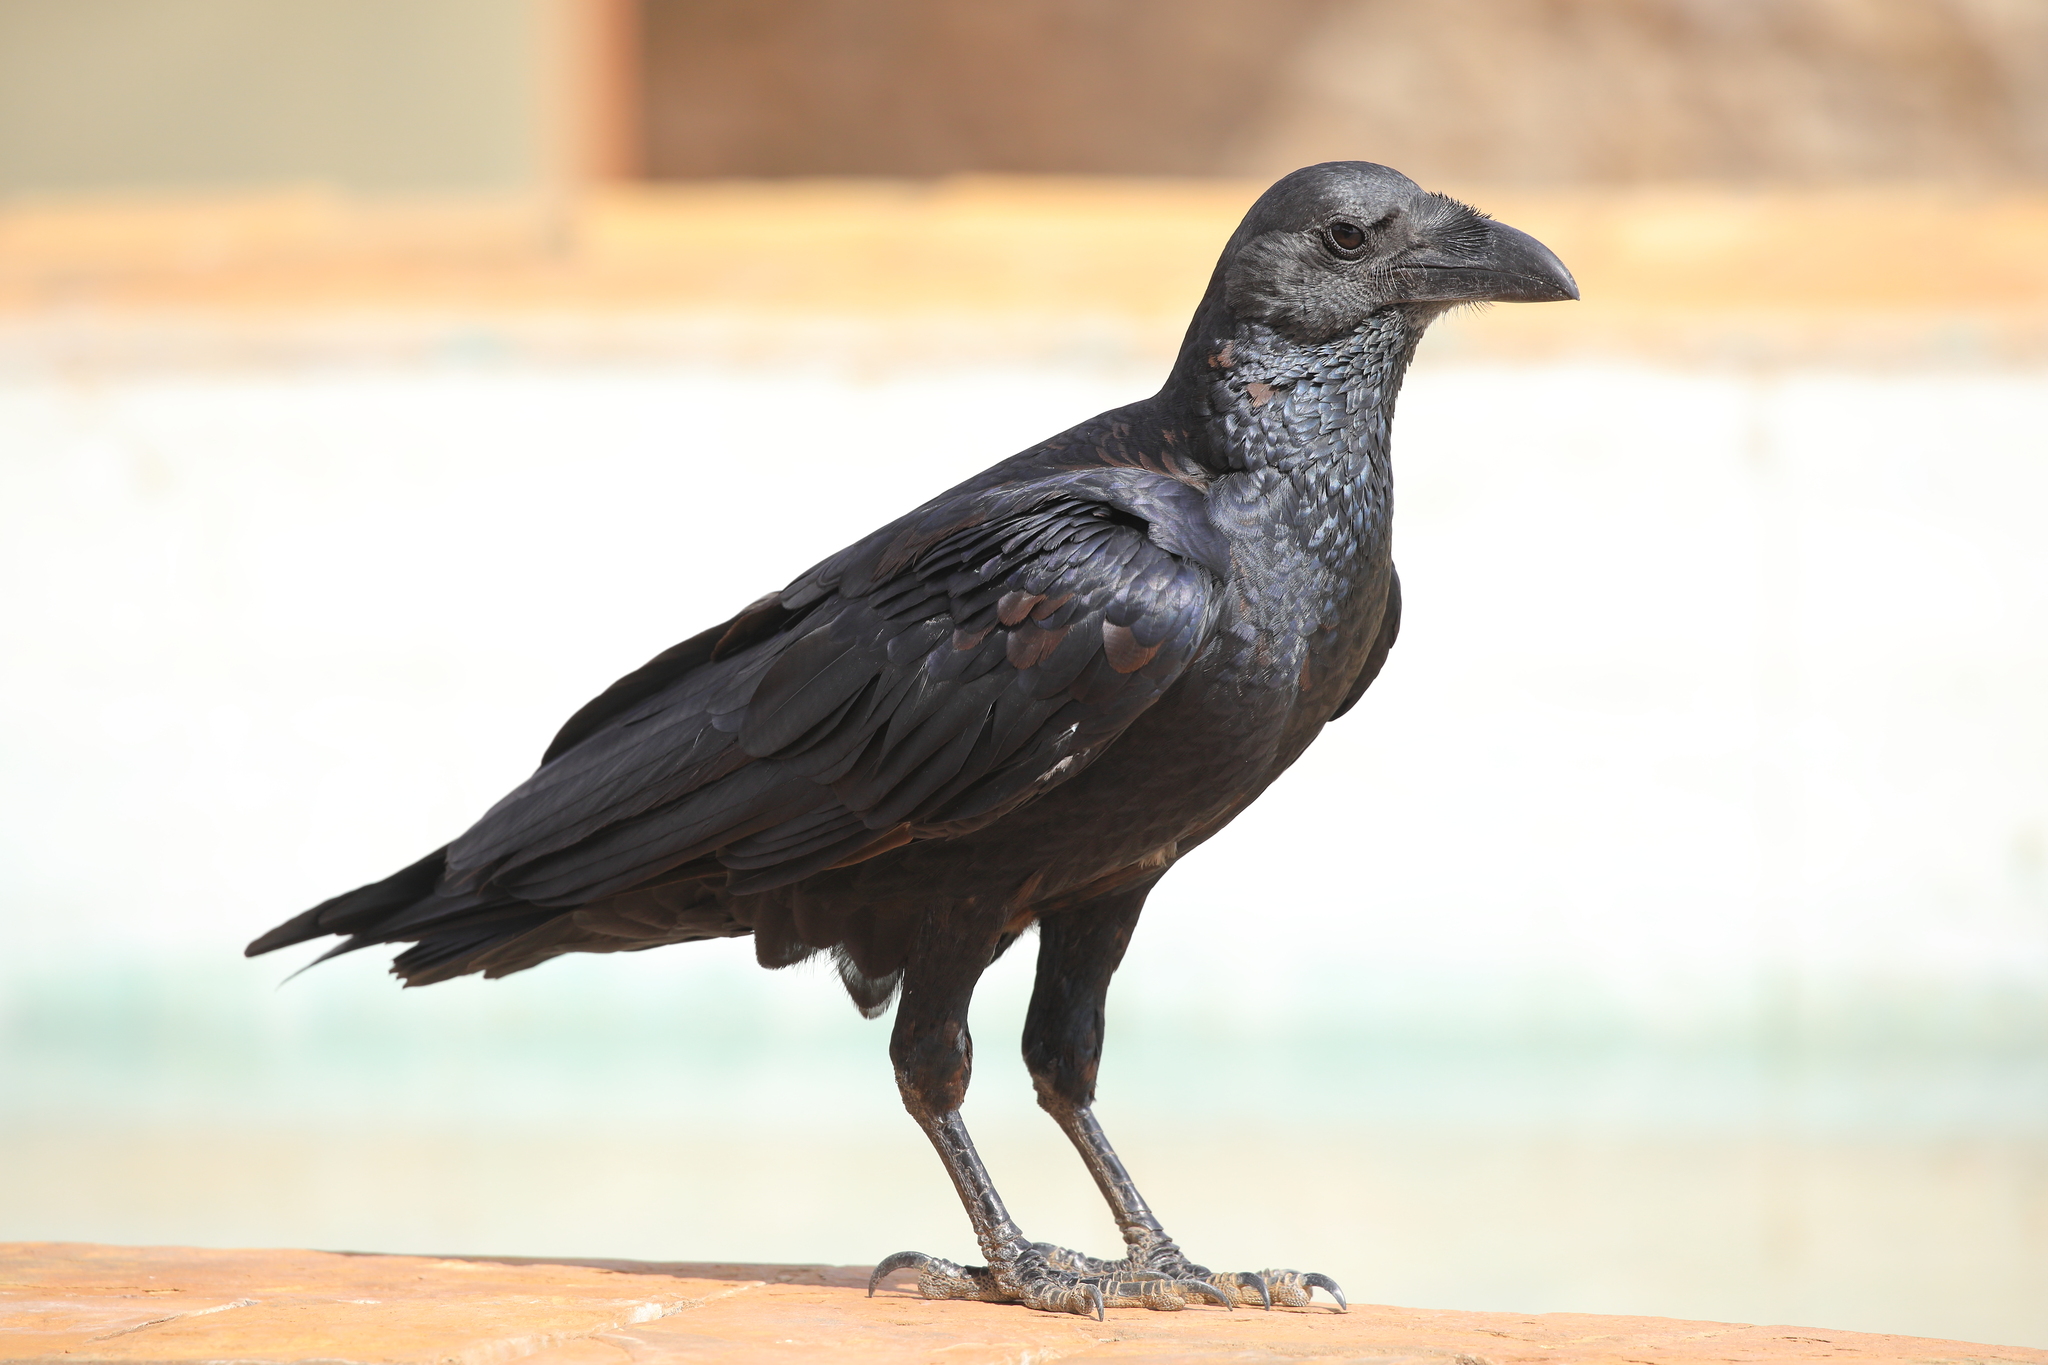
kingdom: Animalia
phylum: Chordata
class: Aves
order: Passeriformes
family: Corvidae
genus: Corvus
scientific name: Corvus rhipidurus
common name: Fan-tailed raven
